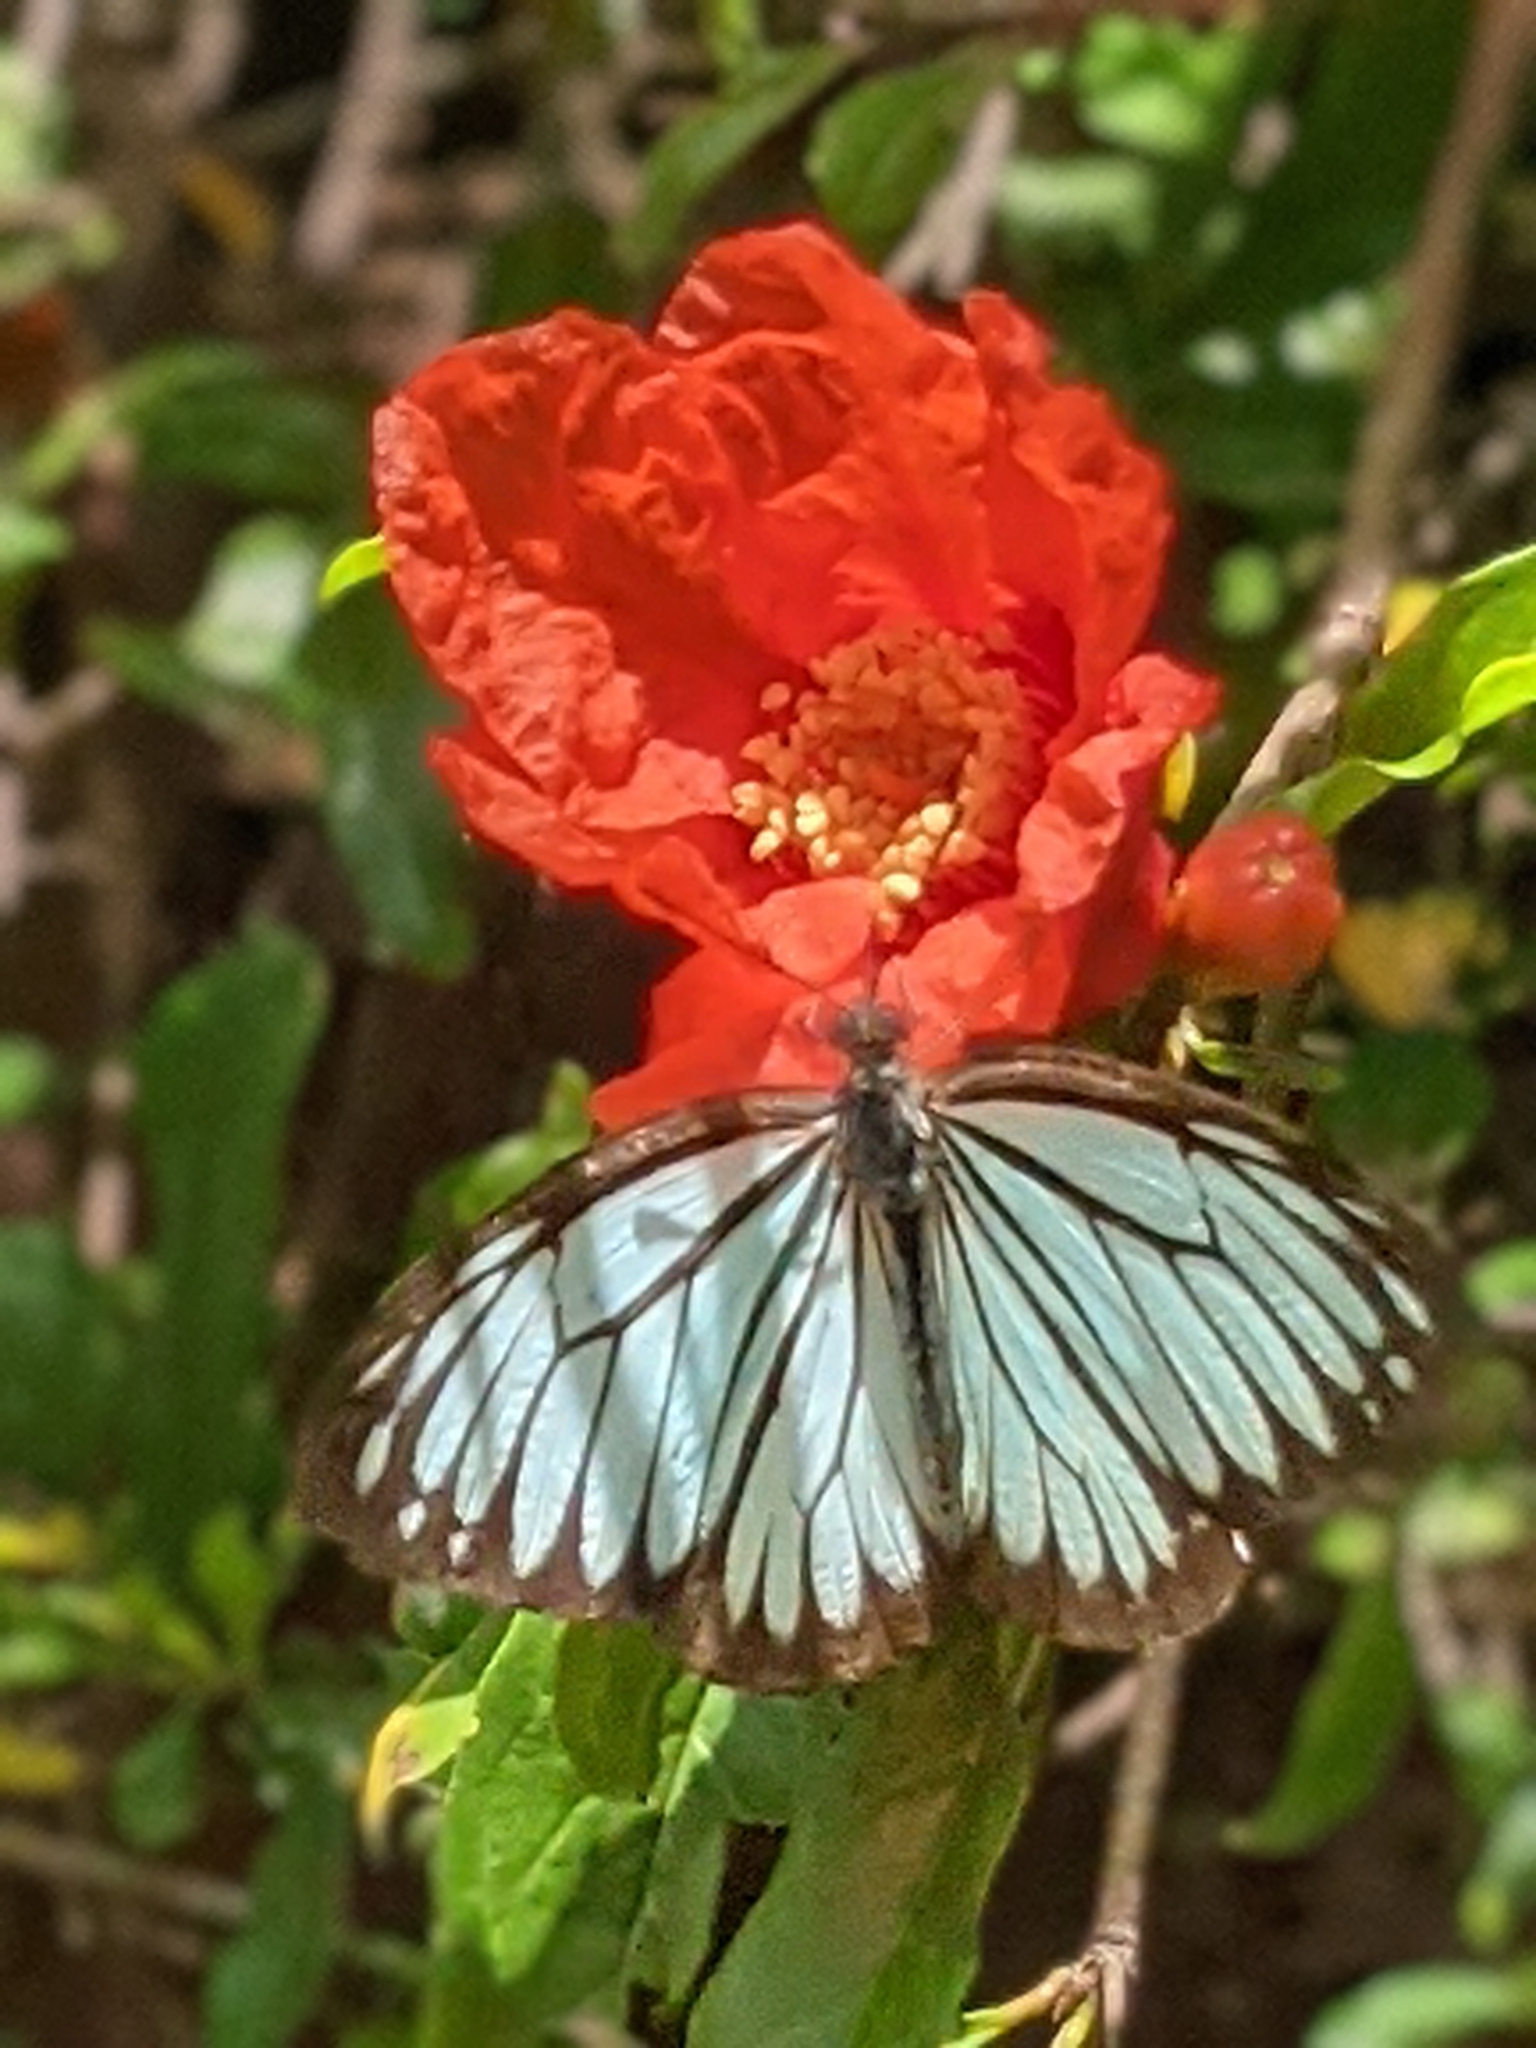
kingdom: Animalia
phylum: Arthropoda
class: Insecta
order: Lepidoptera
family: Pieridae
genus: Pareronia
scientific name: Pareronia hippia
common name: Indian wanderer
